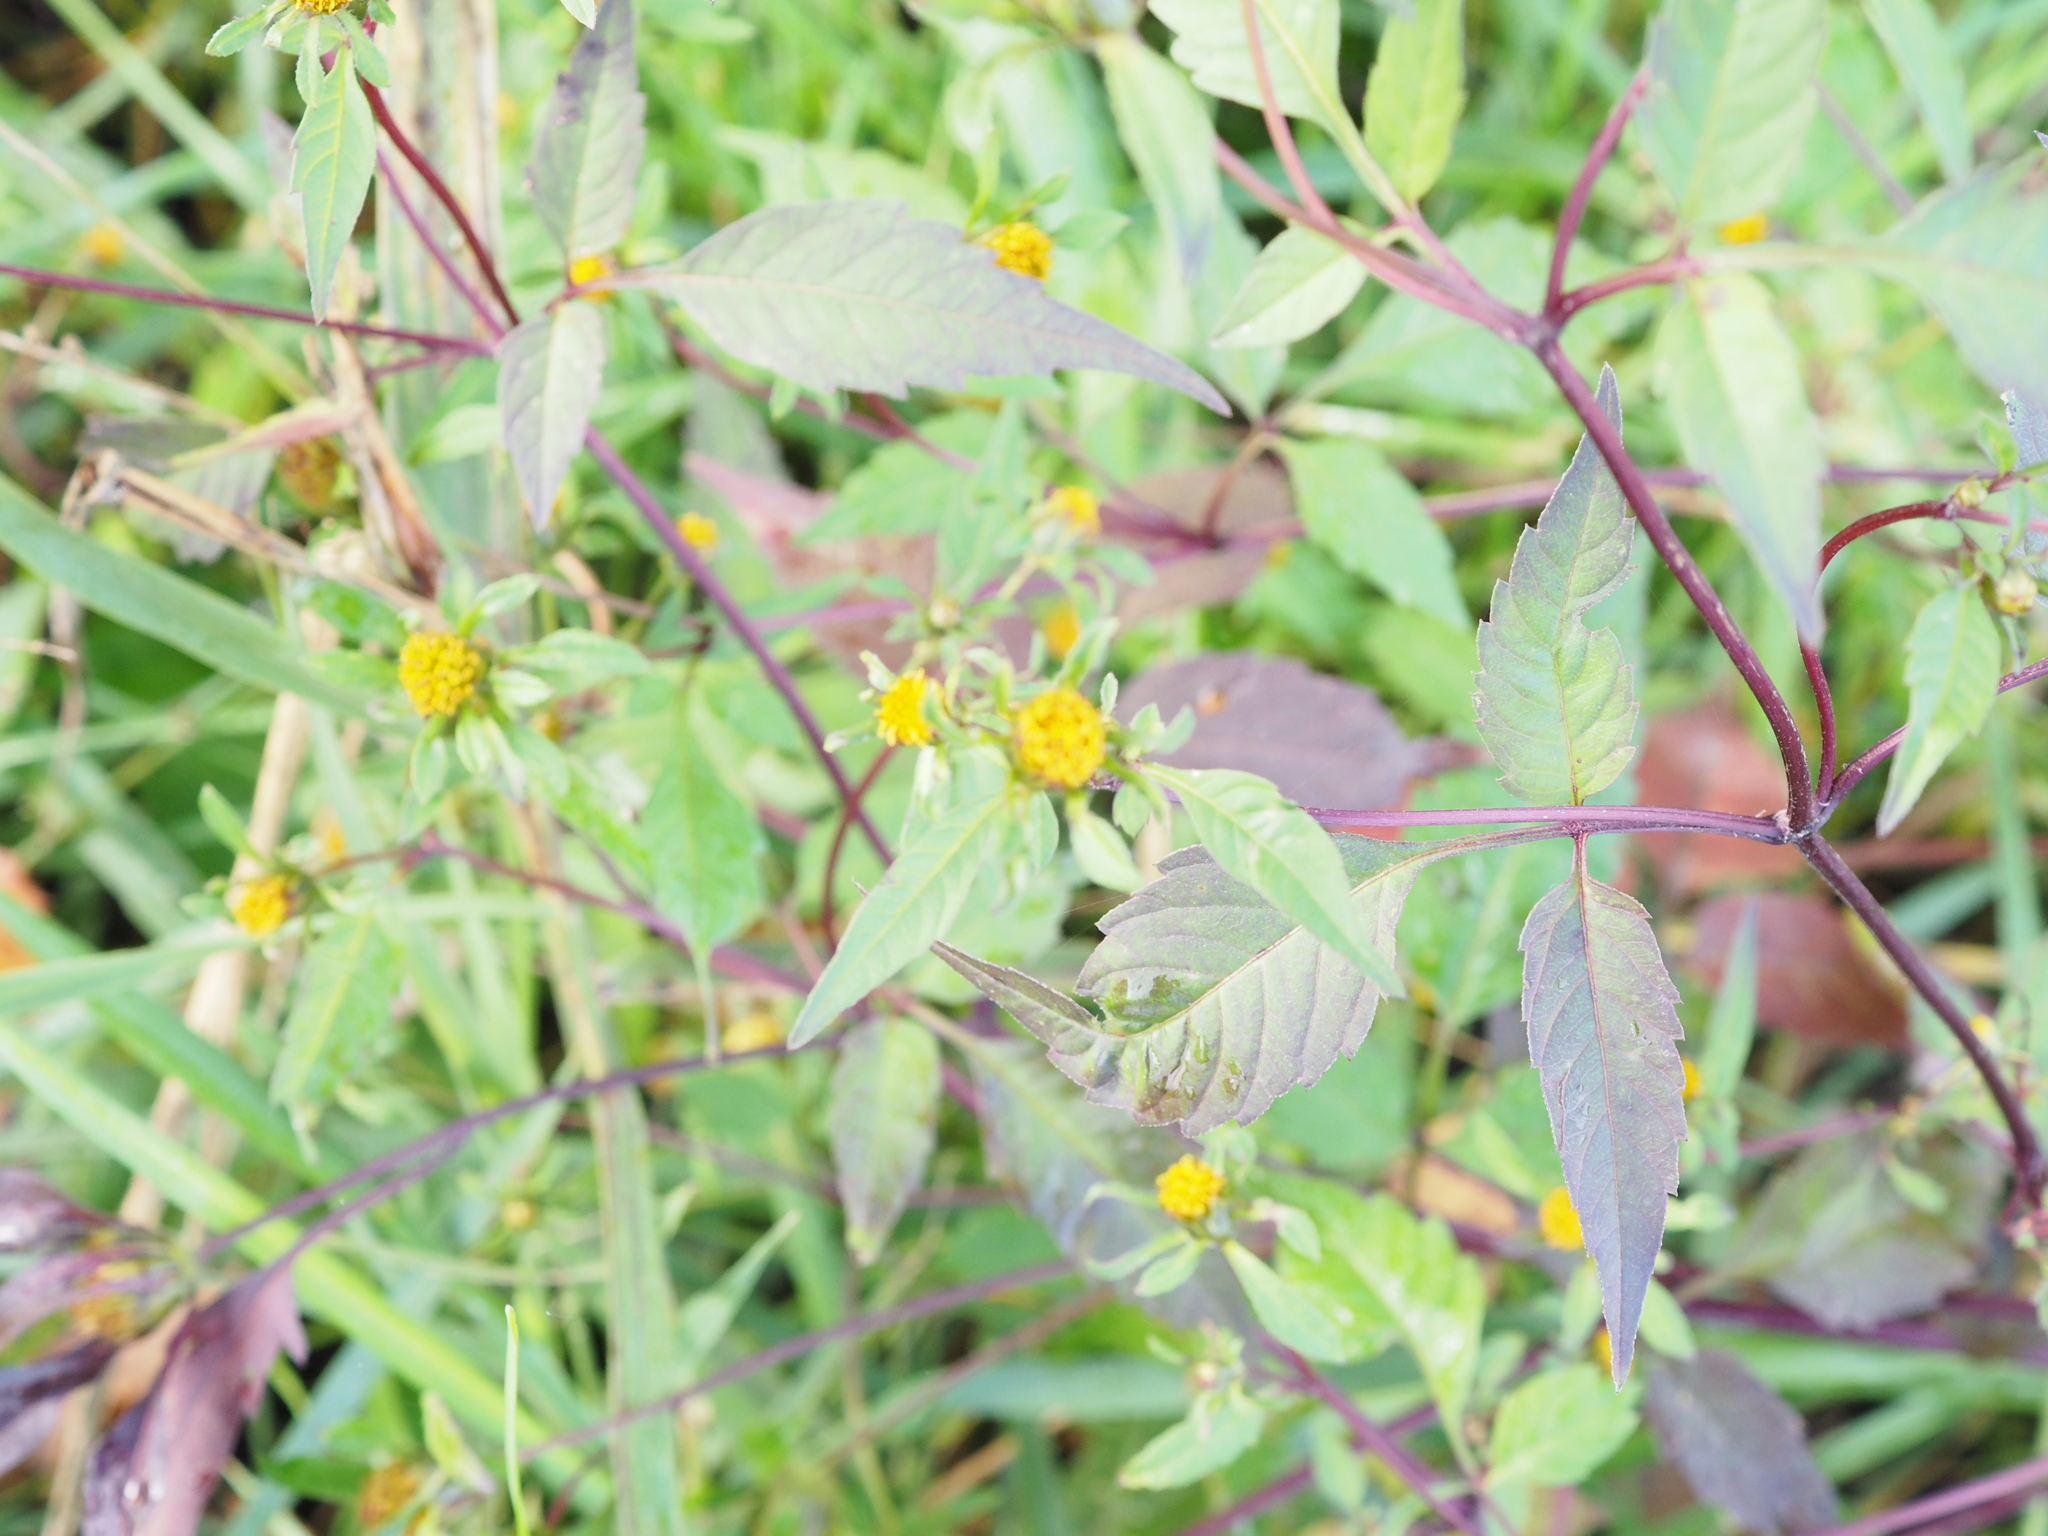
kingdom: Plantae
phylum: Tracheophyta
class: Magnoliopsida
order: Asterales
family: Asteraceae
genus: Bidens
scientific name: Bidens frondosa
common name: Beggarticks
